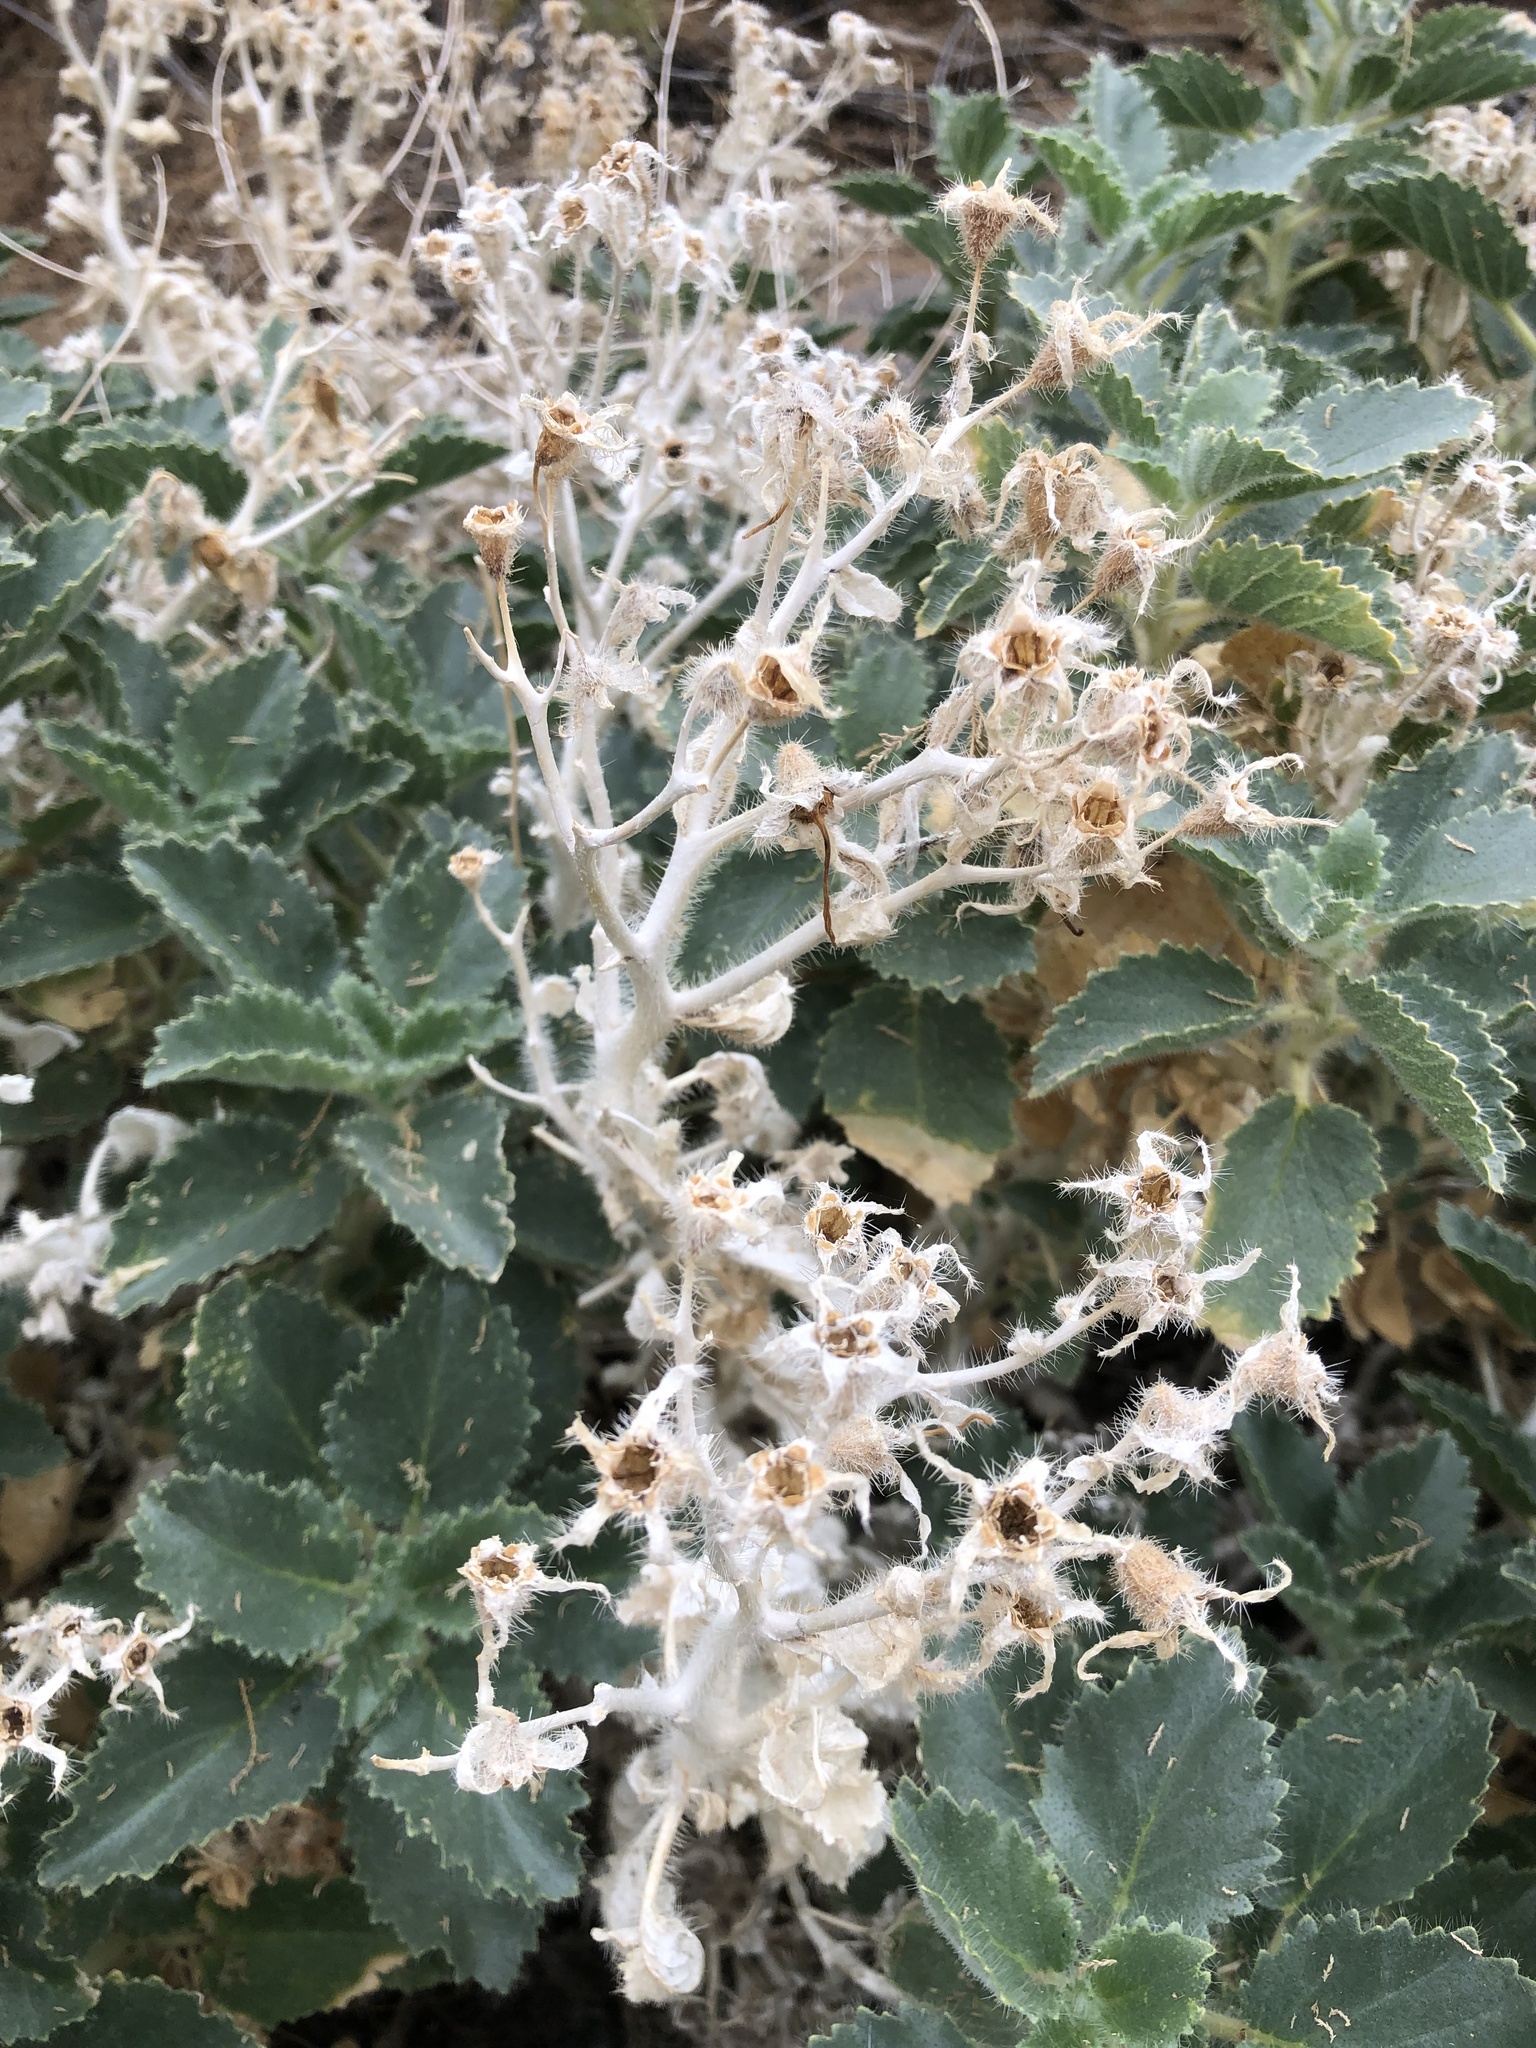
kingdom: Plantae
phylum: Tracheophyta
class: Magnoliopsida
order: Cornales
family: Loasaceae
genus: Eucnide
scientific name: Eucnide urens
